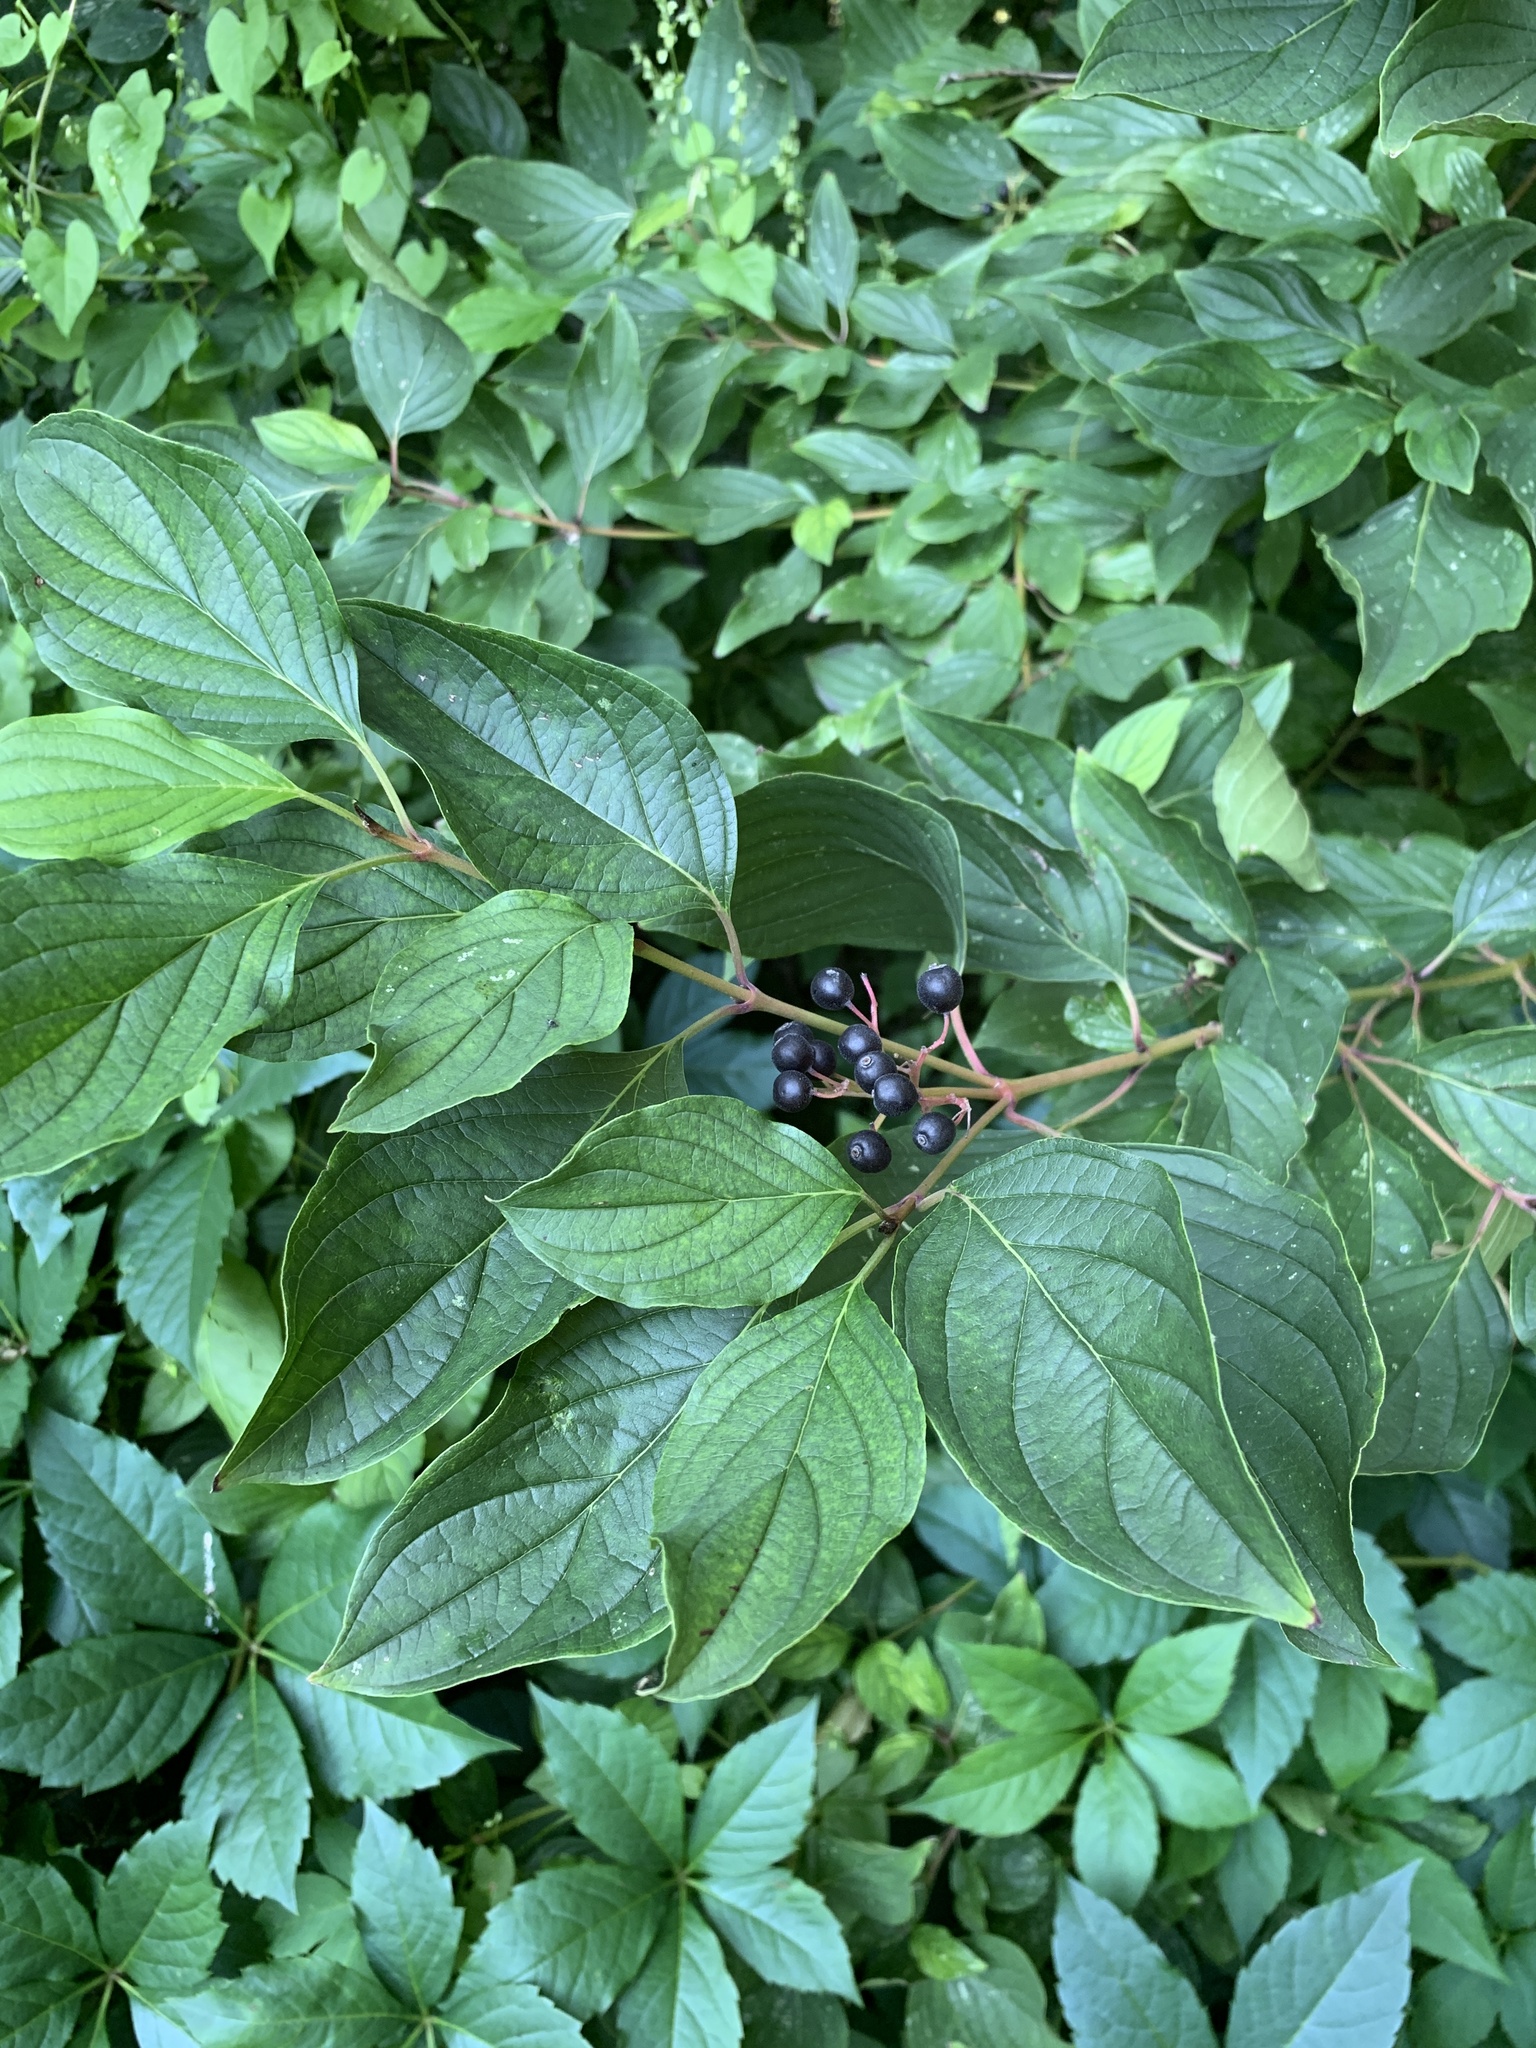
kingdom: Plantae
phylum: Tracheophyta
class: Magnoliopsida
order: Cornales
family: Cornaceae
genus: Cornus
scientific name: Cornus sanguinea
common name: Dogwood
